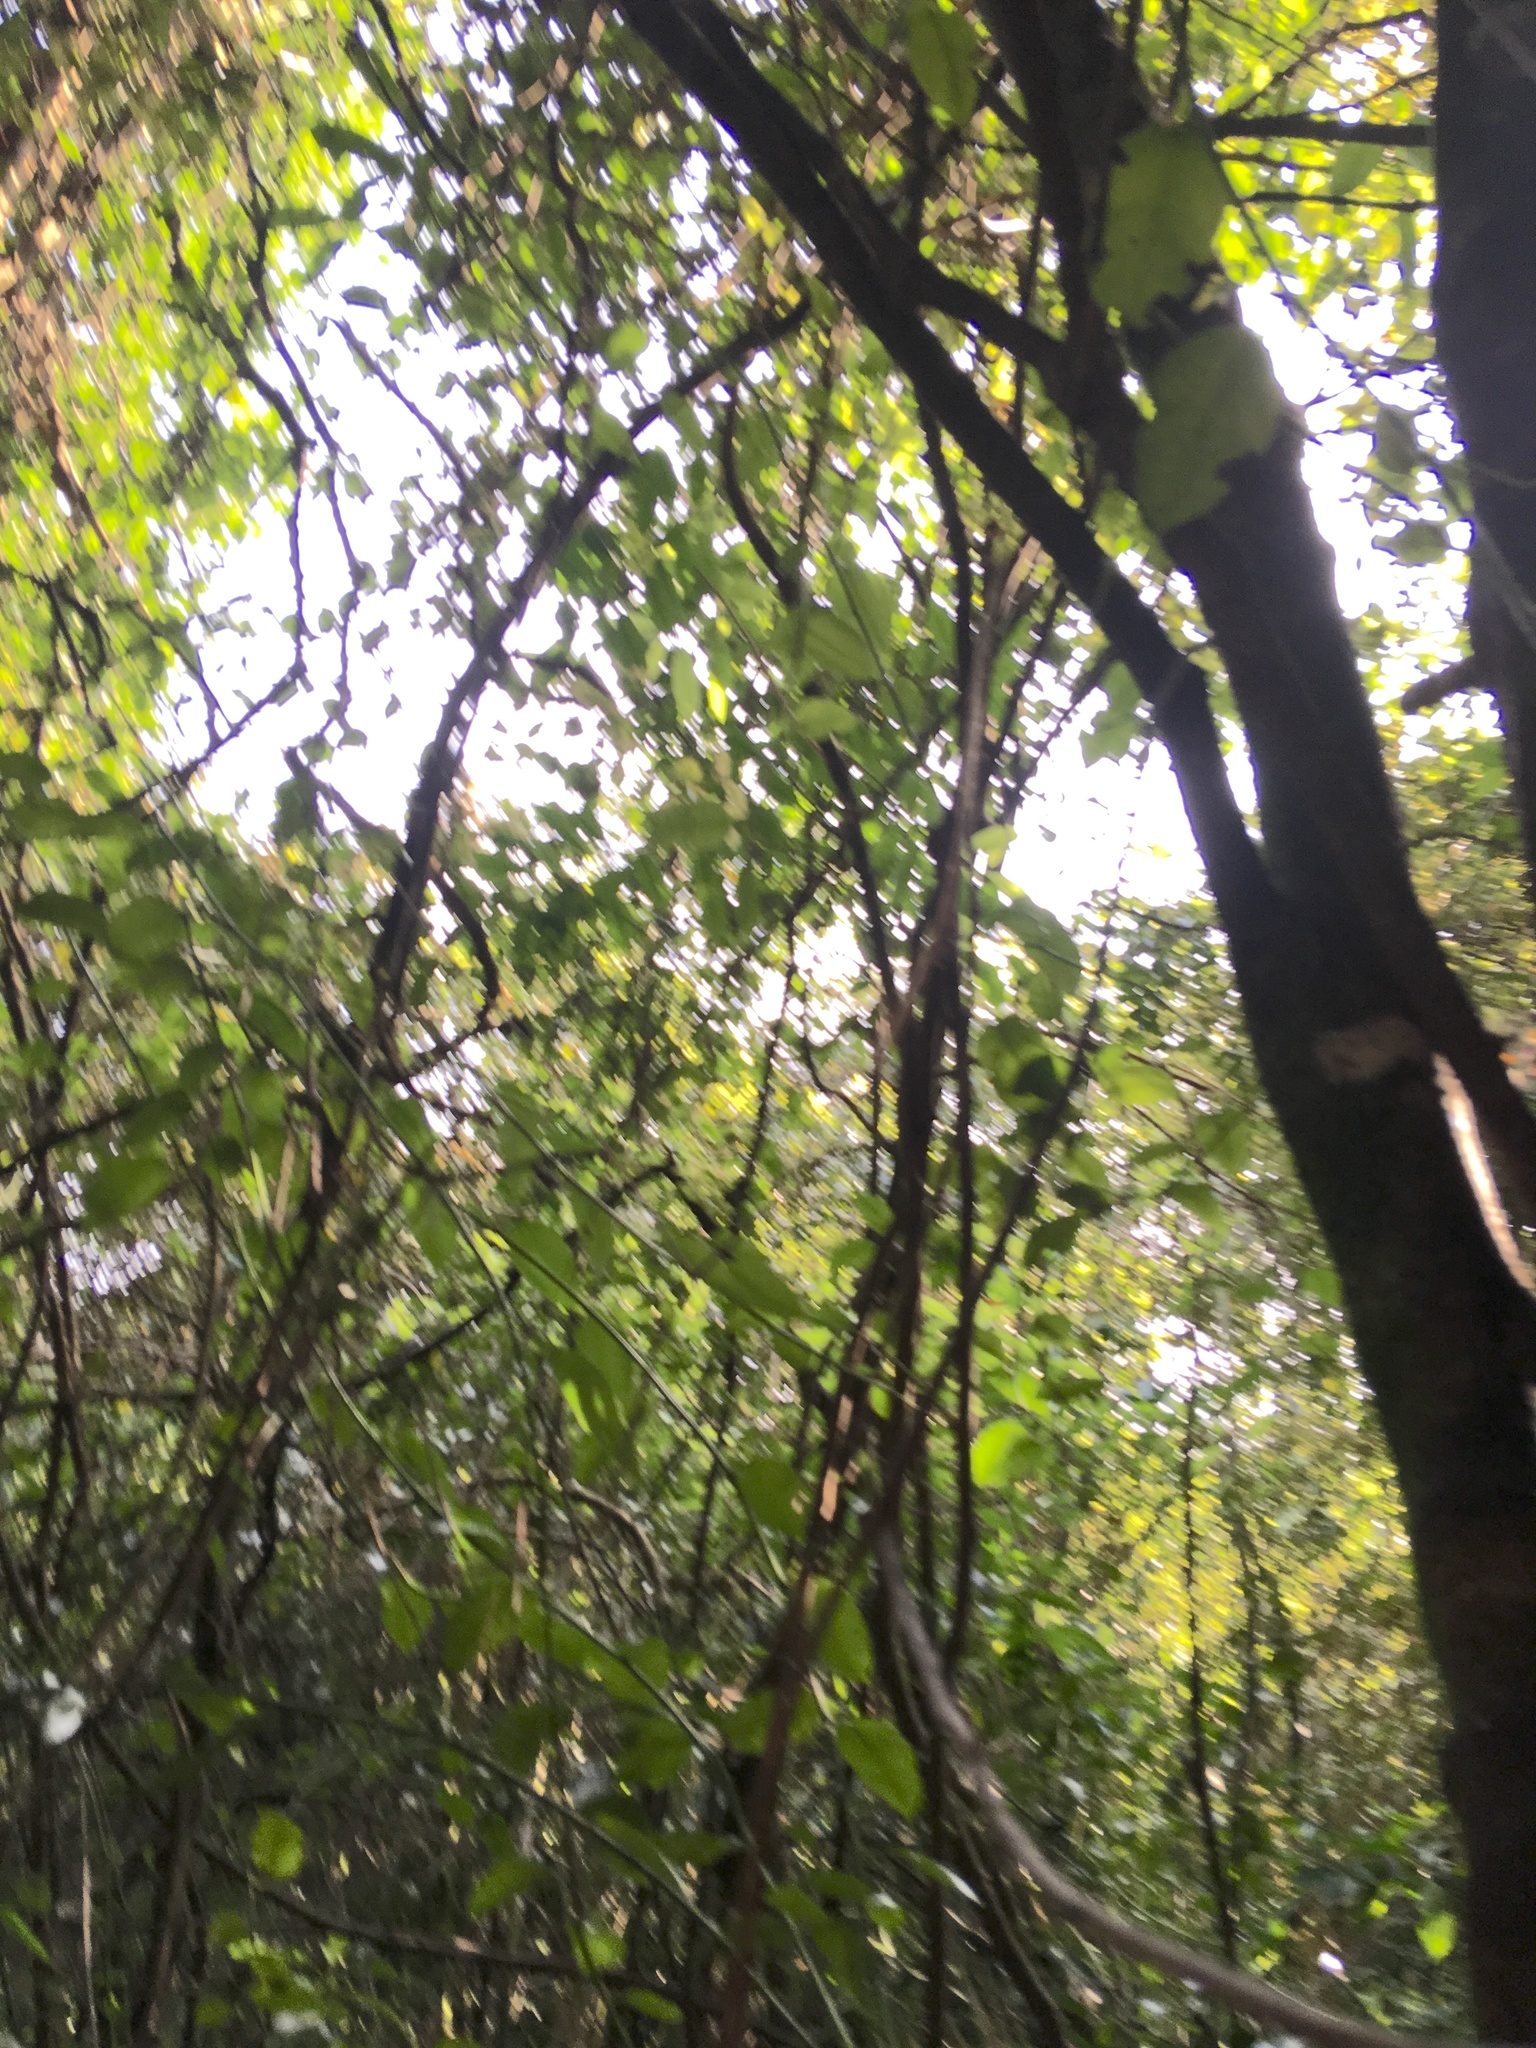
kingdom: Plantae
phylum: Tracheophyta
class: Magnoliopsida
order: Malpighiales
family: Passifloraceae
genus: Passiflora
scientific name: Passiflora tetrandra
